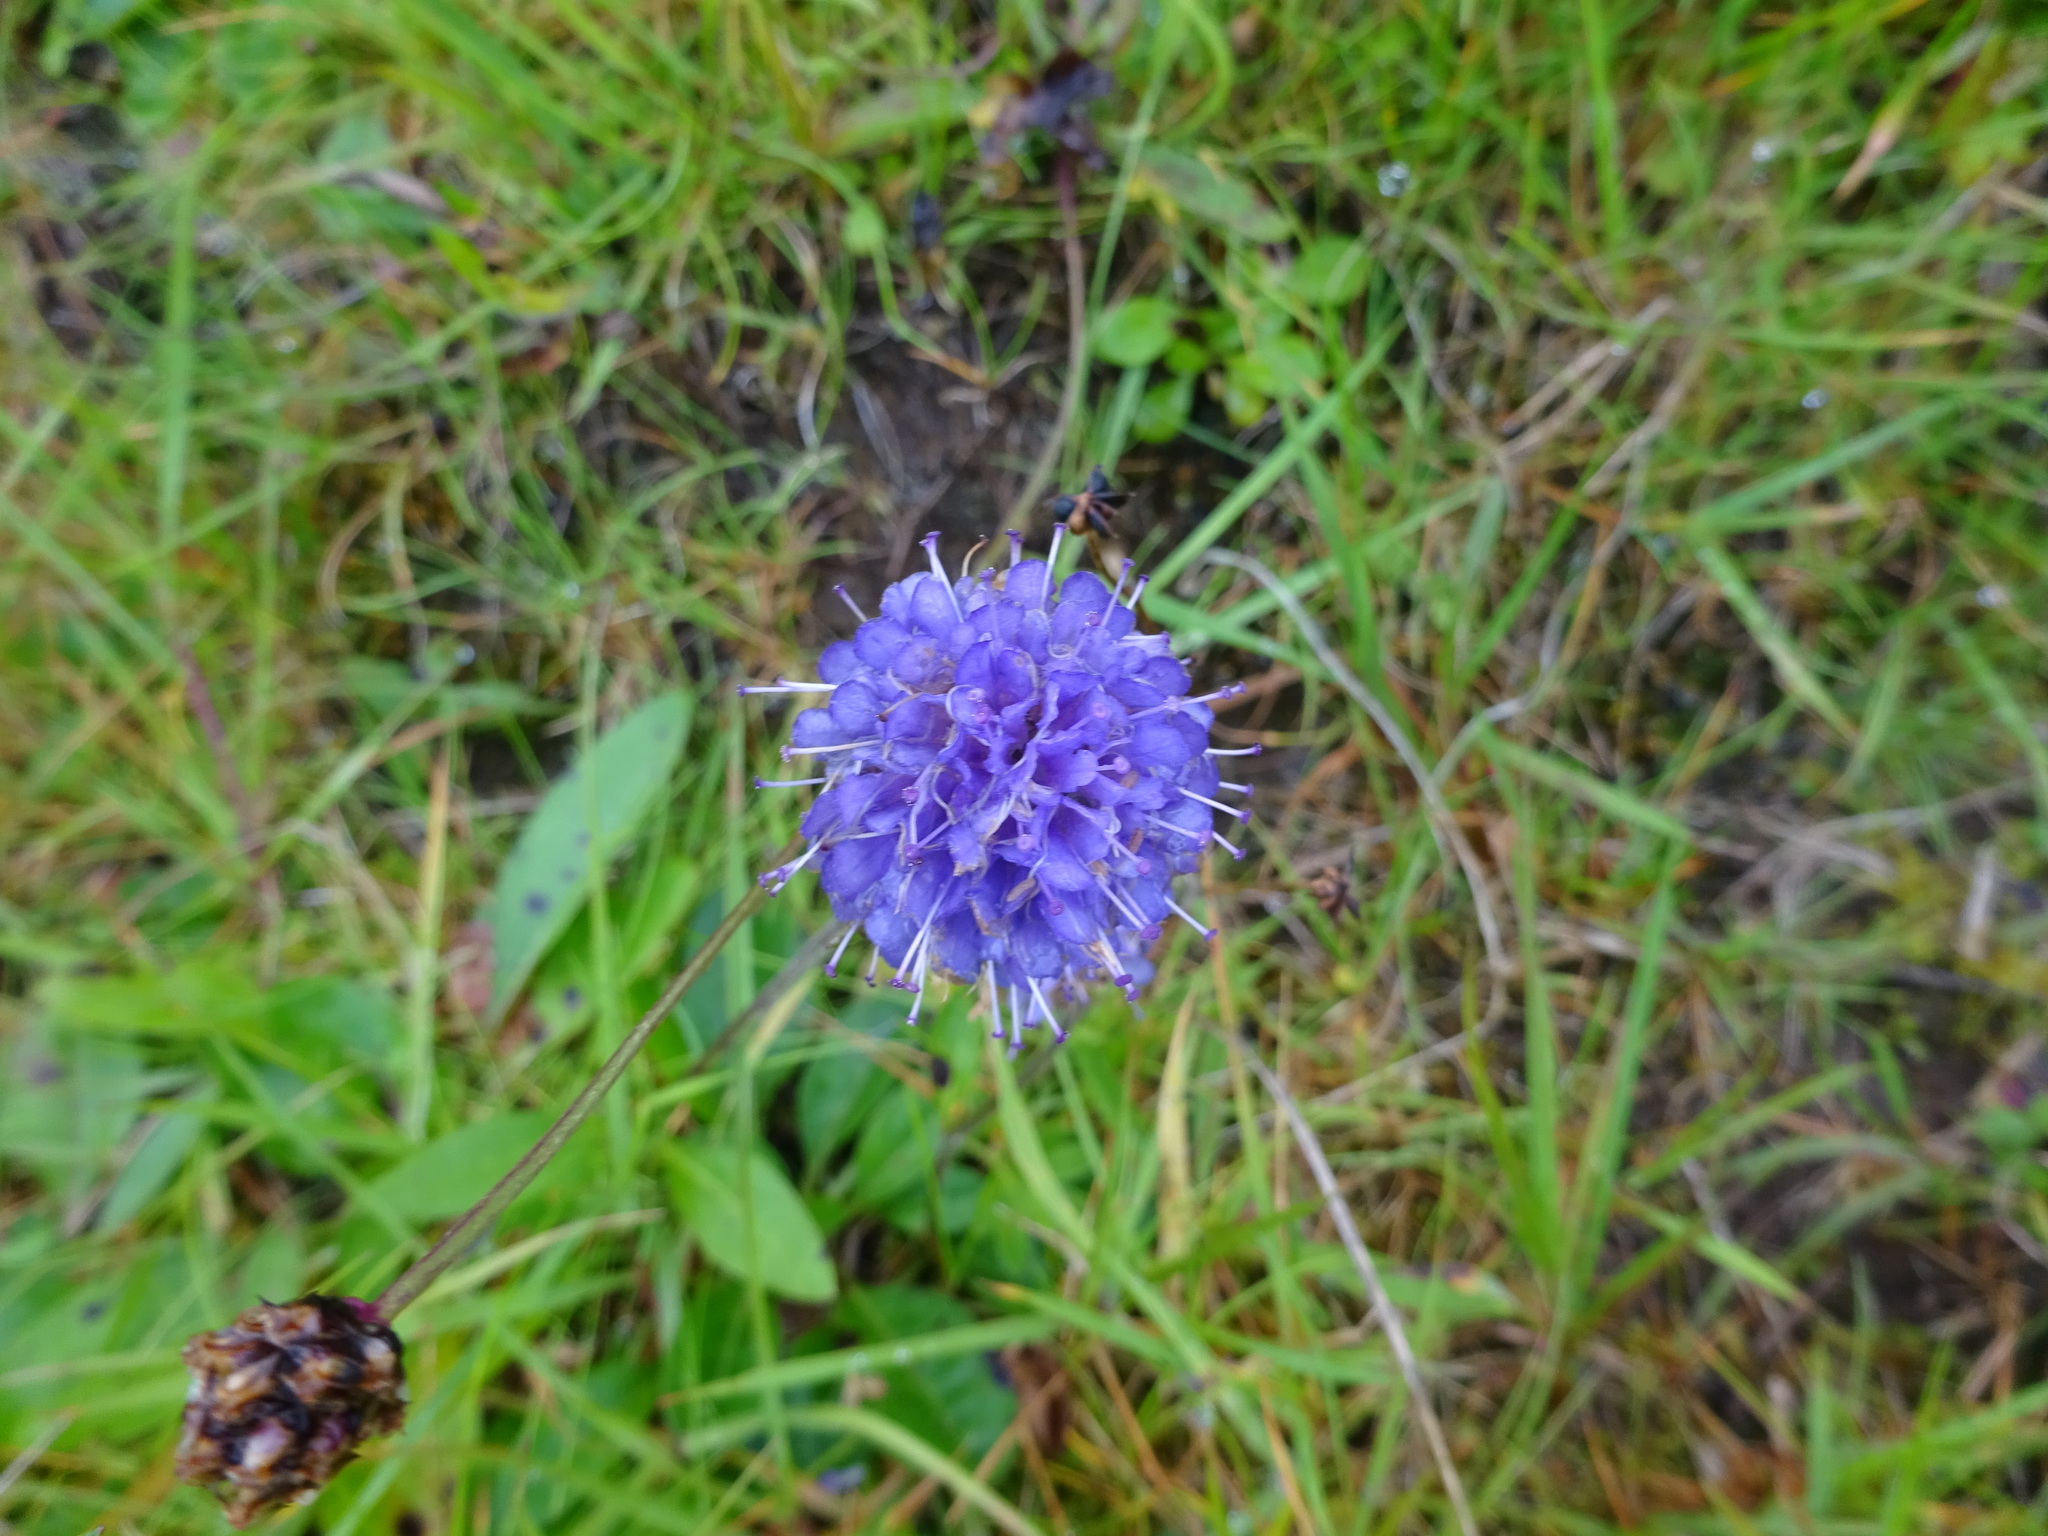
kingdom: Plantae
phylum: Tracheophyta
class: Magnoliopsida
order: Dipsacales
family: Caprifoliaceae
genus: Succisa
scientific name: Succisa pratensis
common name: Devil's-bit
